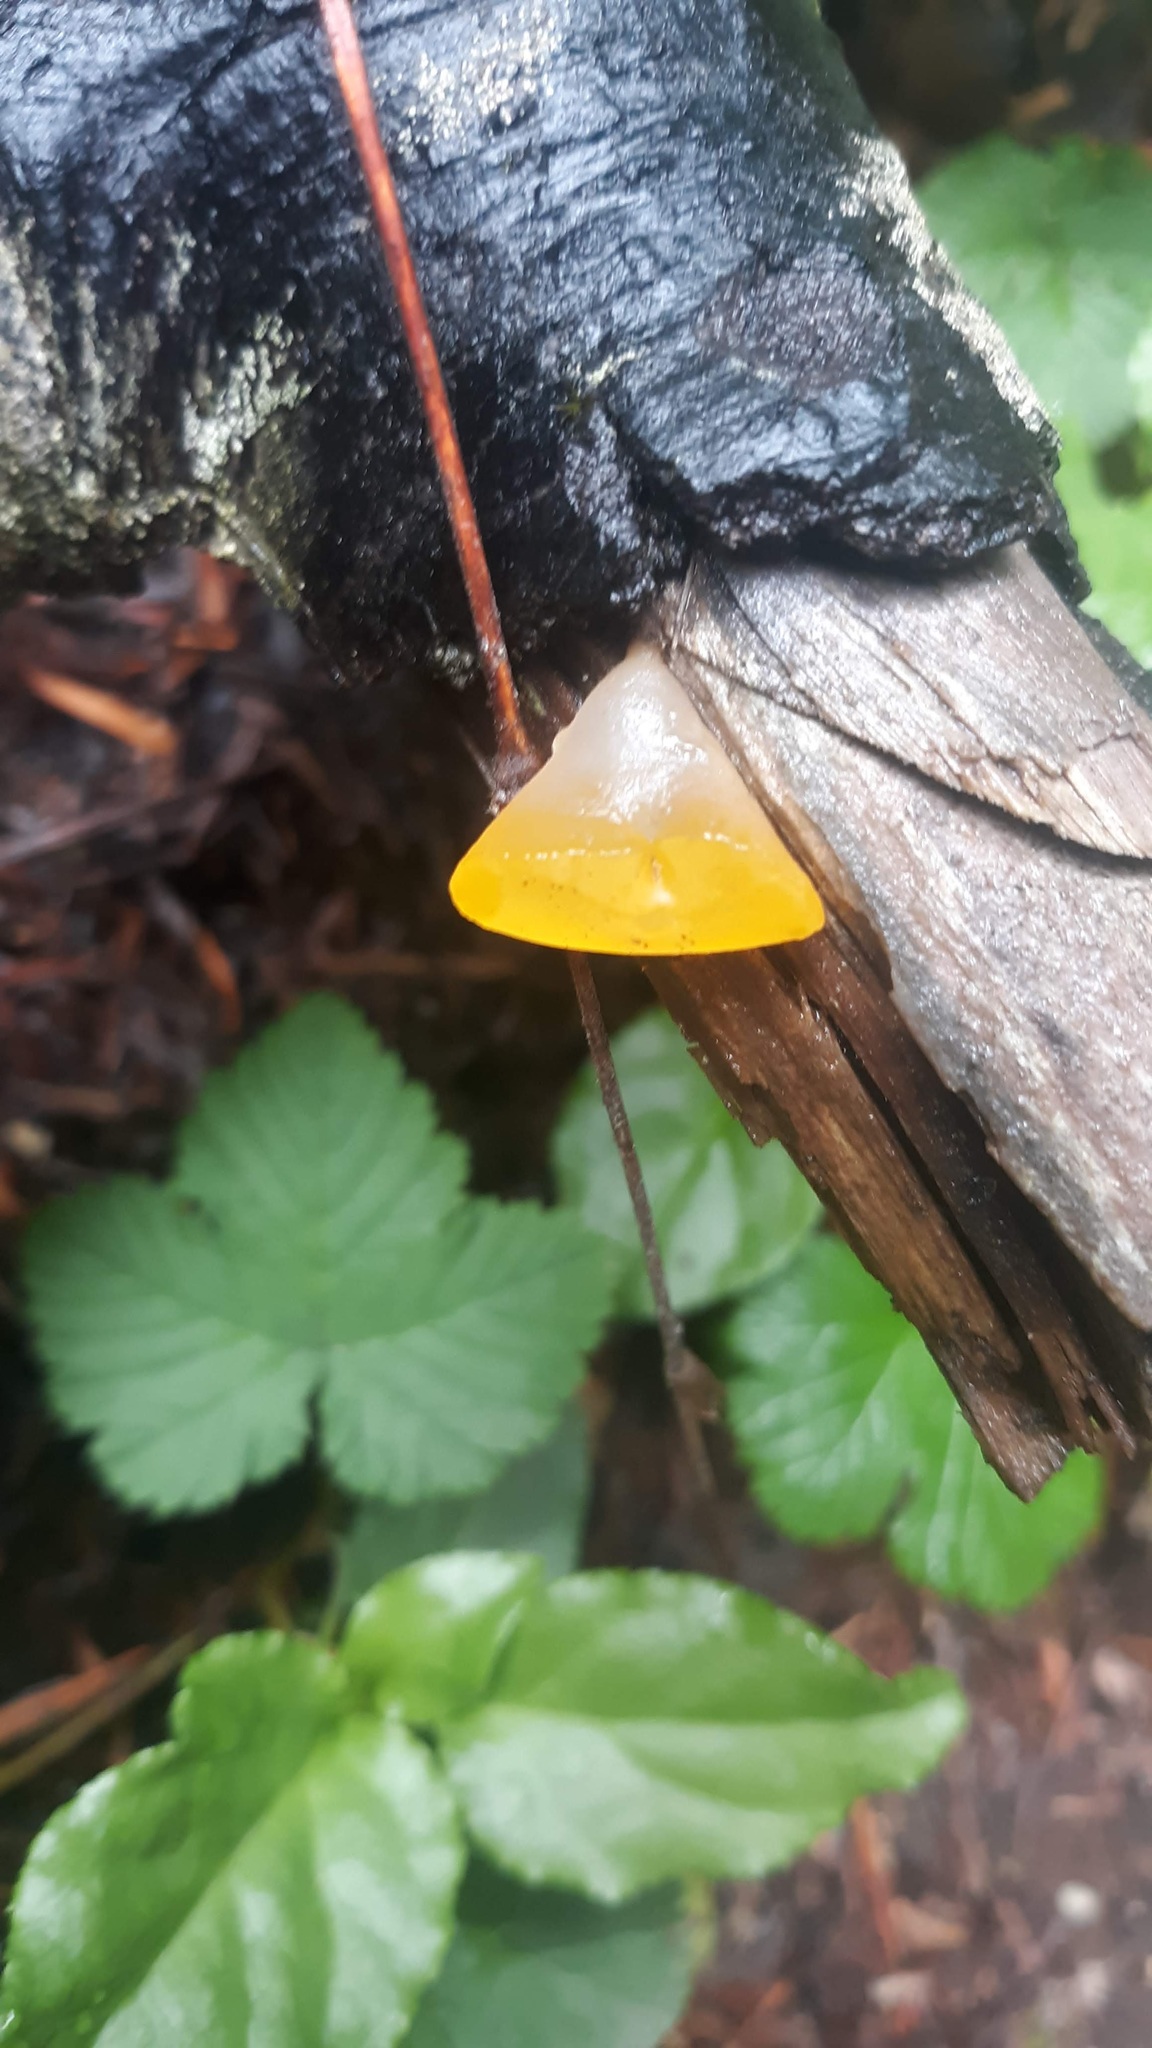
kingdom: Fungi
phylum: Basidiomycota
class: Dacrymycetes
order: Dacrymycetales
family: Dacrymycetaceae
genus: Guepiniopsis
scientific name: Guepiniopsis alpina
